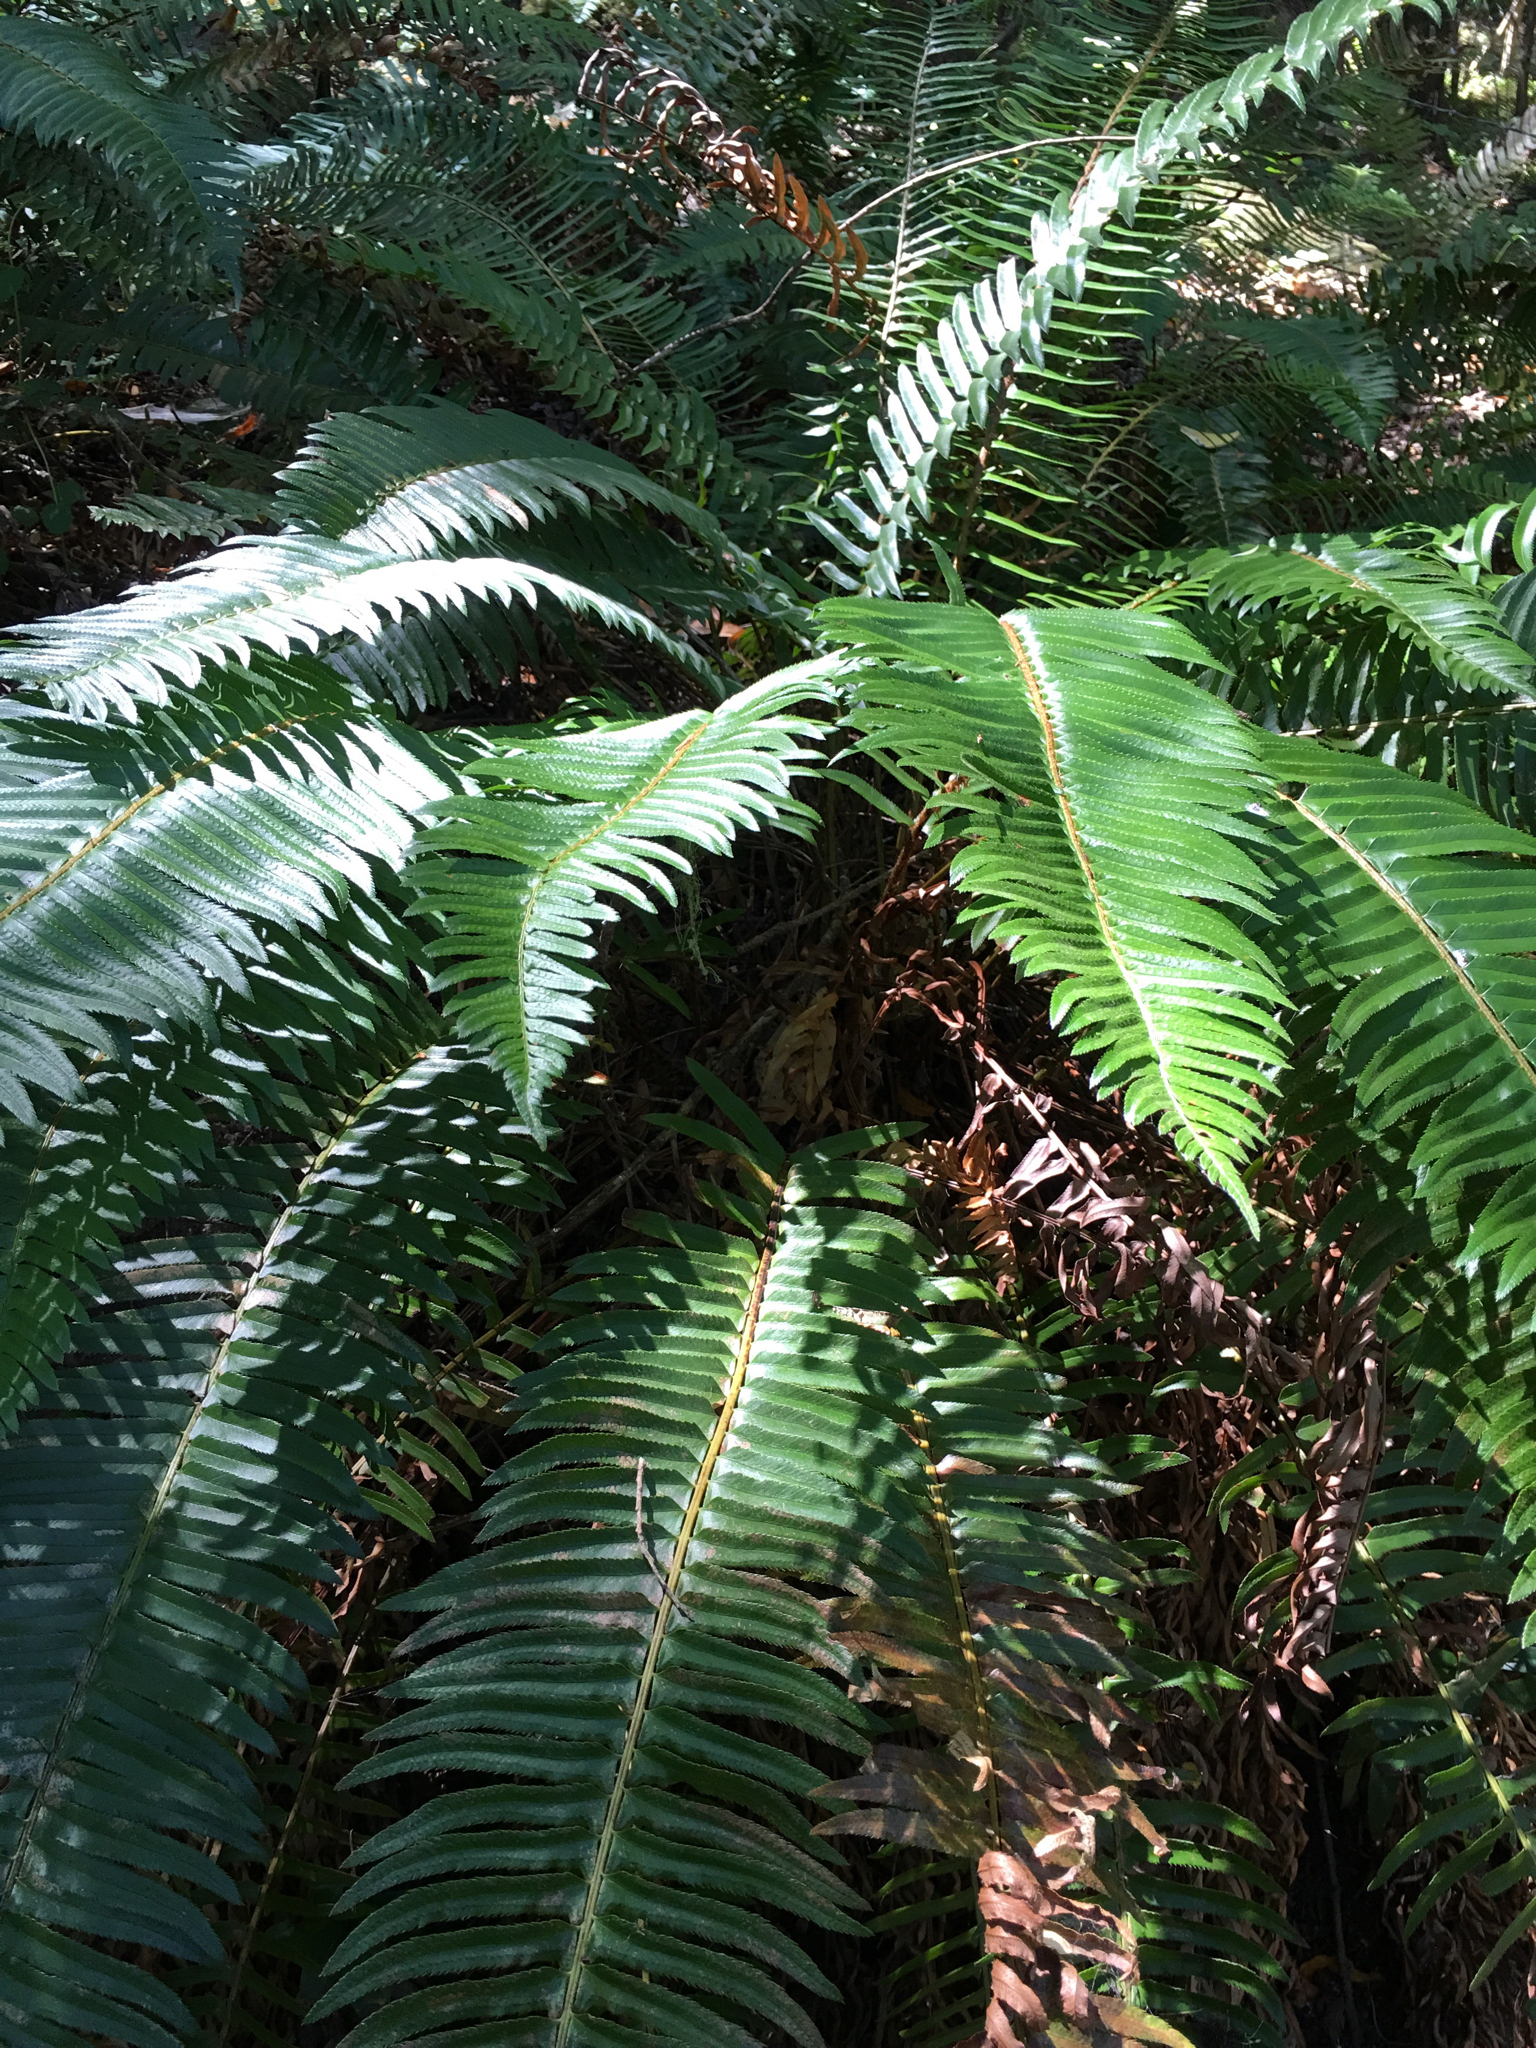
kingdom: Plantae
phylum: Tracheophyta
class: Polypodiopsida
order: Polypodiales
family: Dryopteridaceae
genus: Polystichum
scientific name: Polystichum munitum
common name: Western sword-fern
